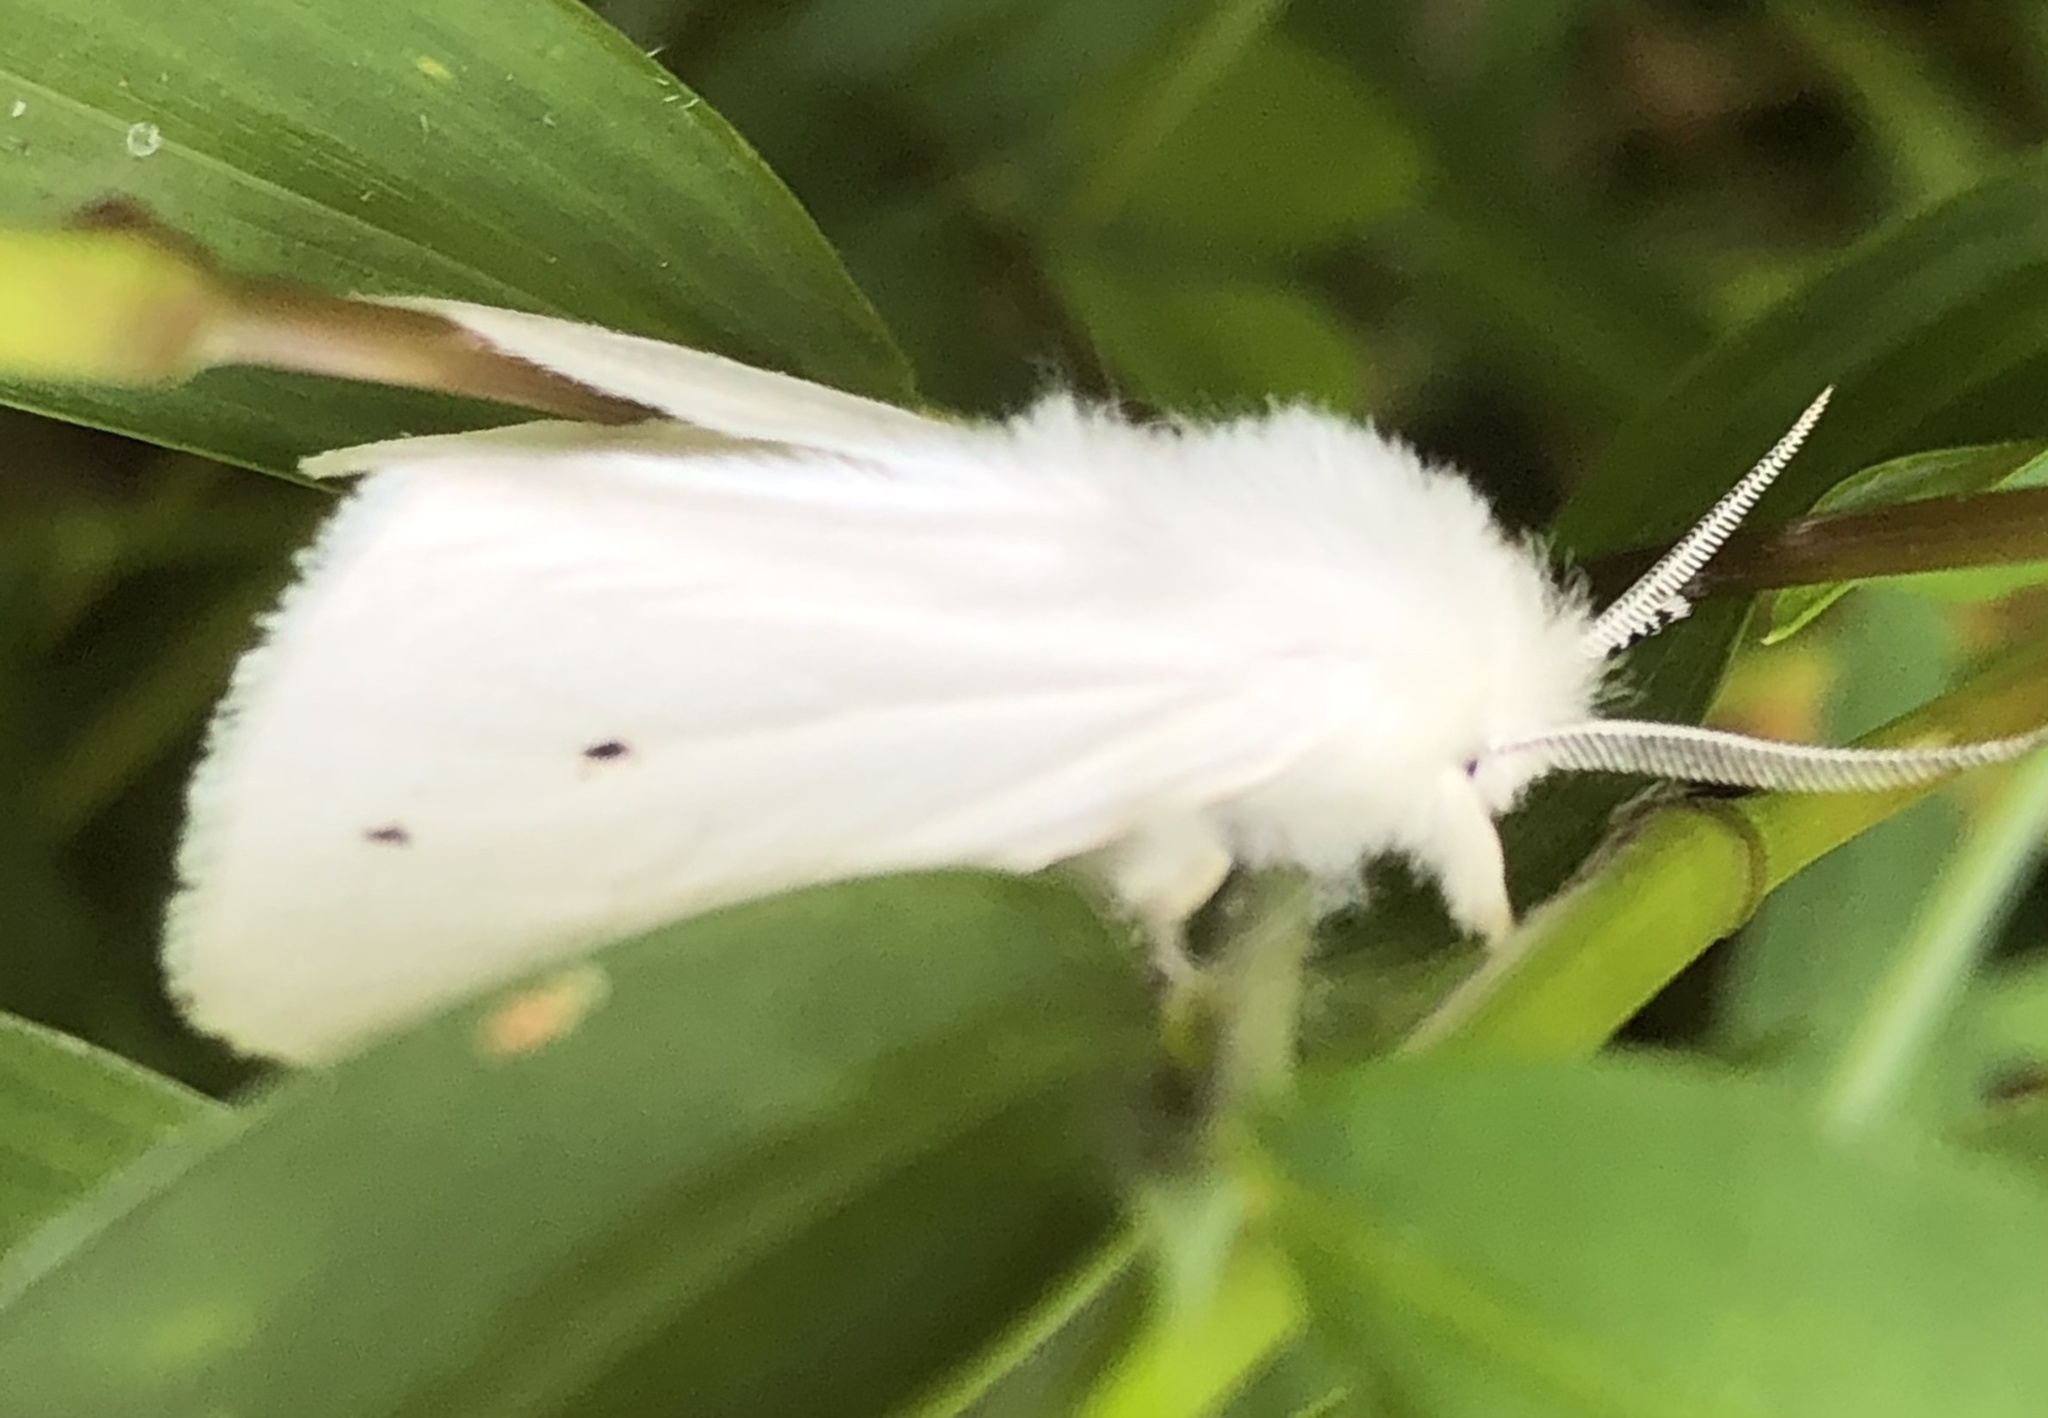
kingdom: Animalia
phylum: Arthropoda
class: Insecta
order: Lepidoptera
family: Erebidae
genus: Spilosoma
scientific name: Spilosoma virginica
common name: Virginia tiger moth
